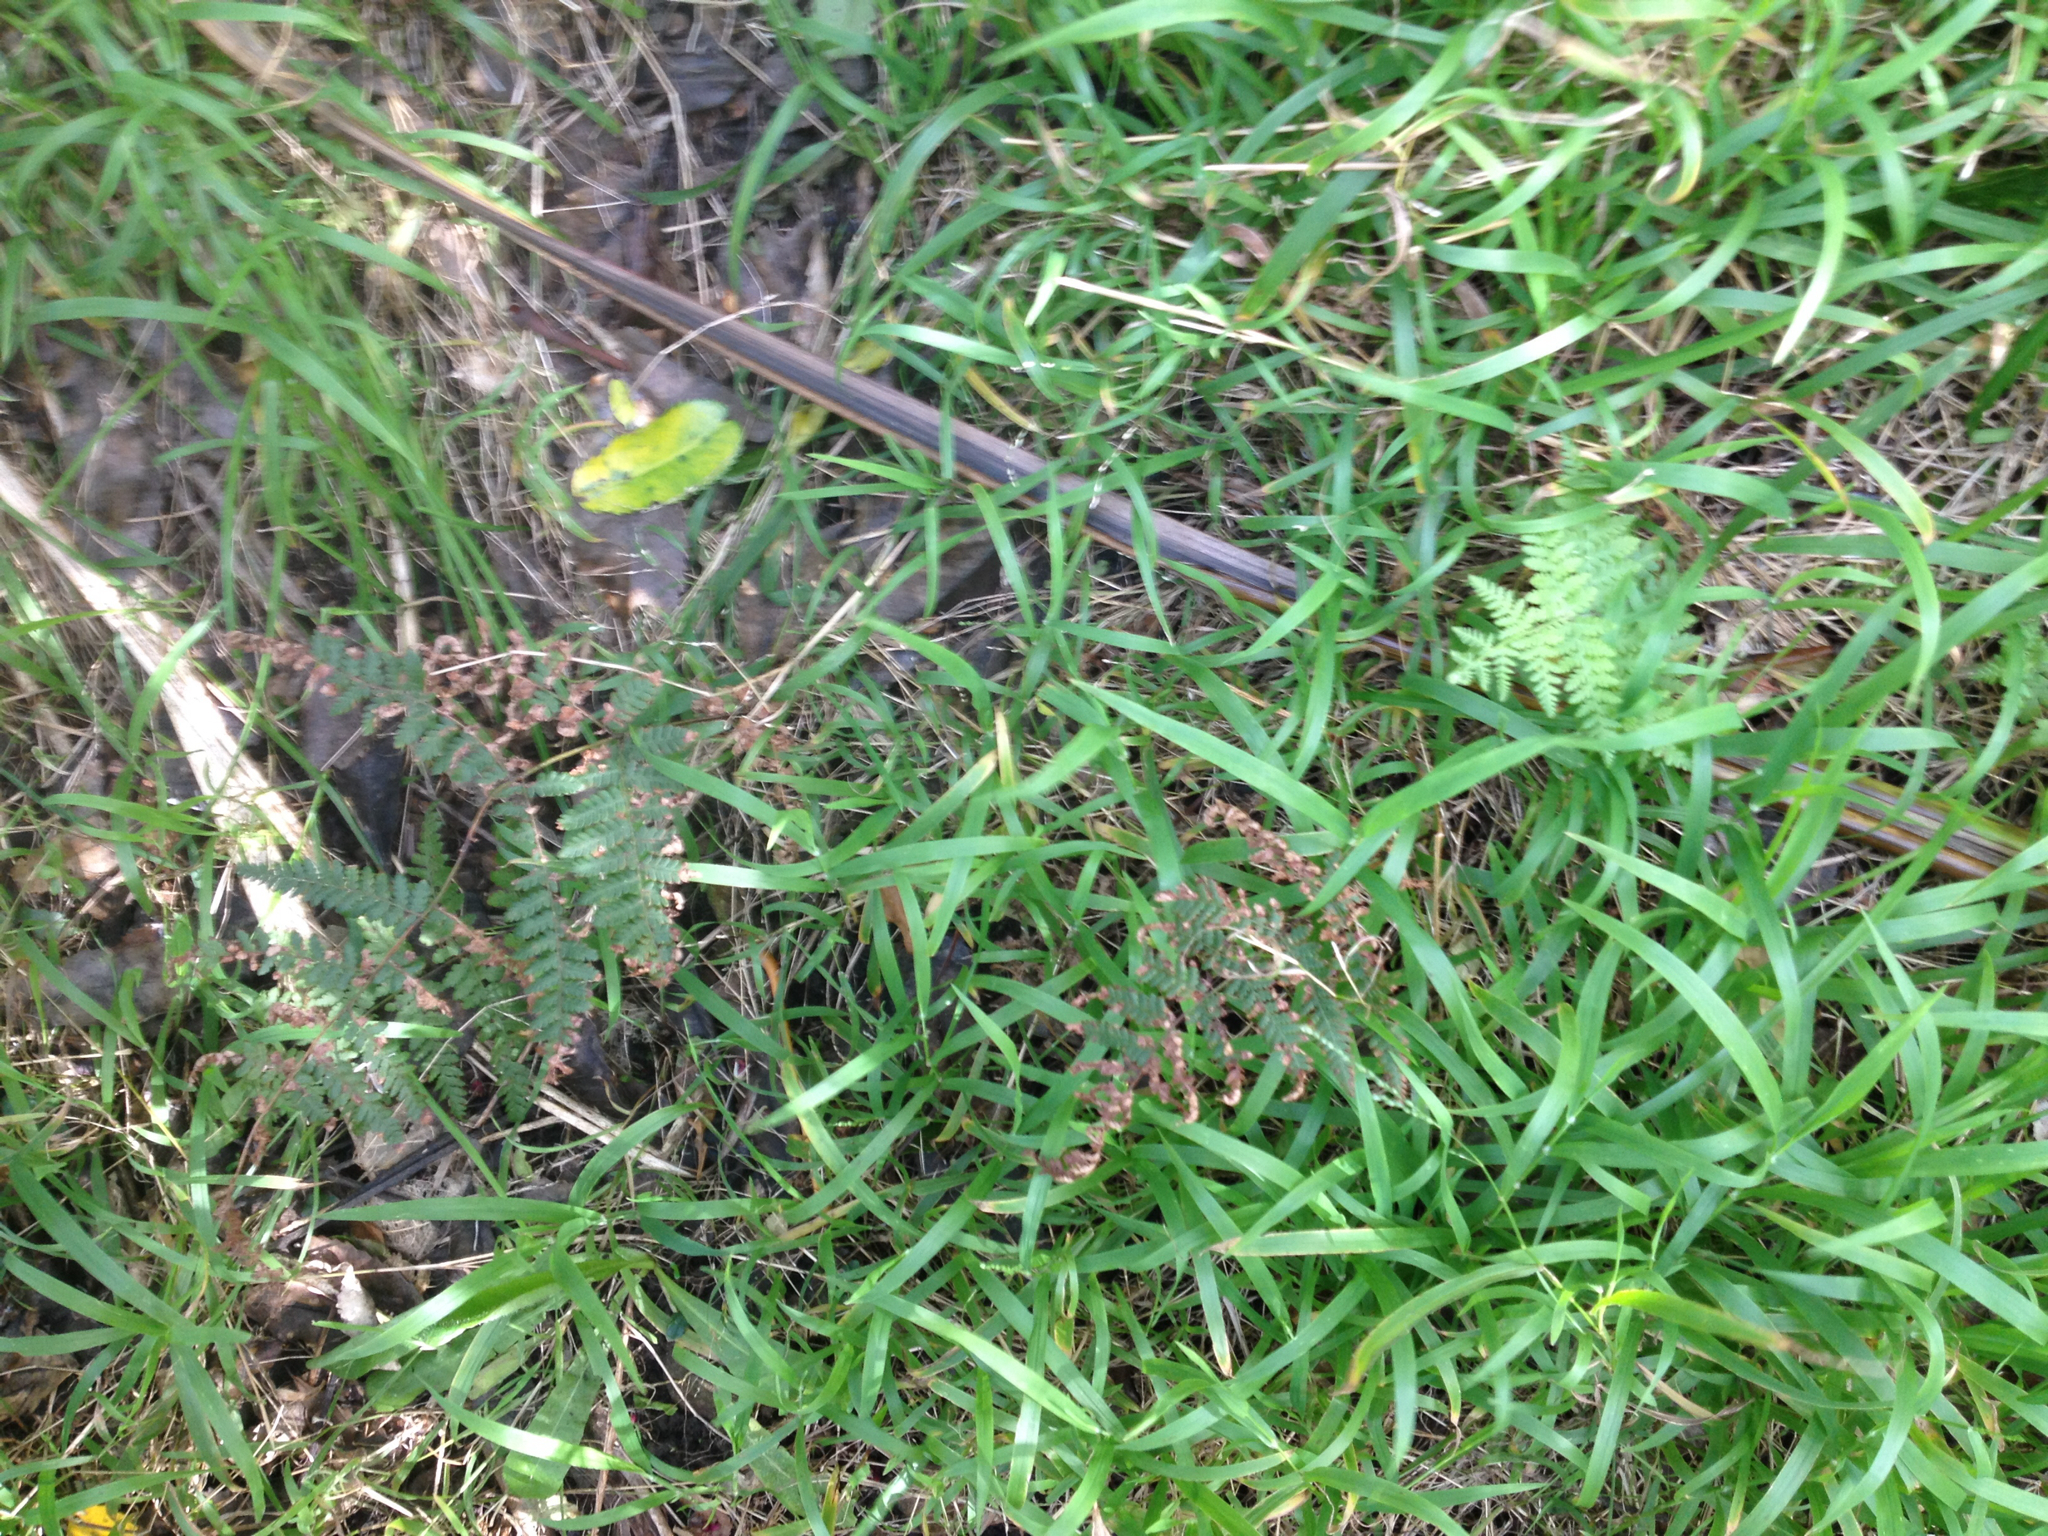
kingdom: Plantae
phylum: Tracheophyta
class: Polypodiopsida
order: Polypodiales
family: Dennstaedtiaceae
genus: Hypolepis
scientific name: Hypolepis ambigua
